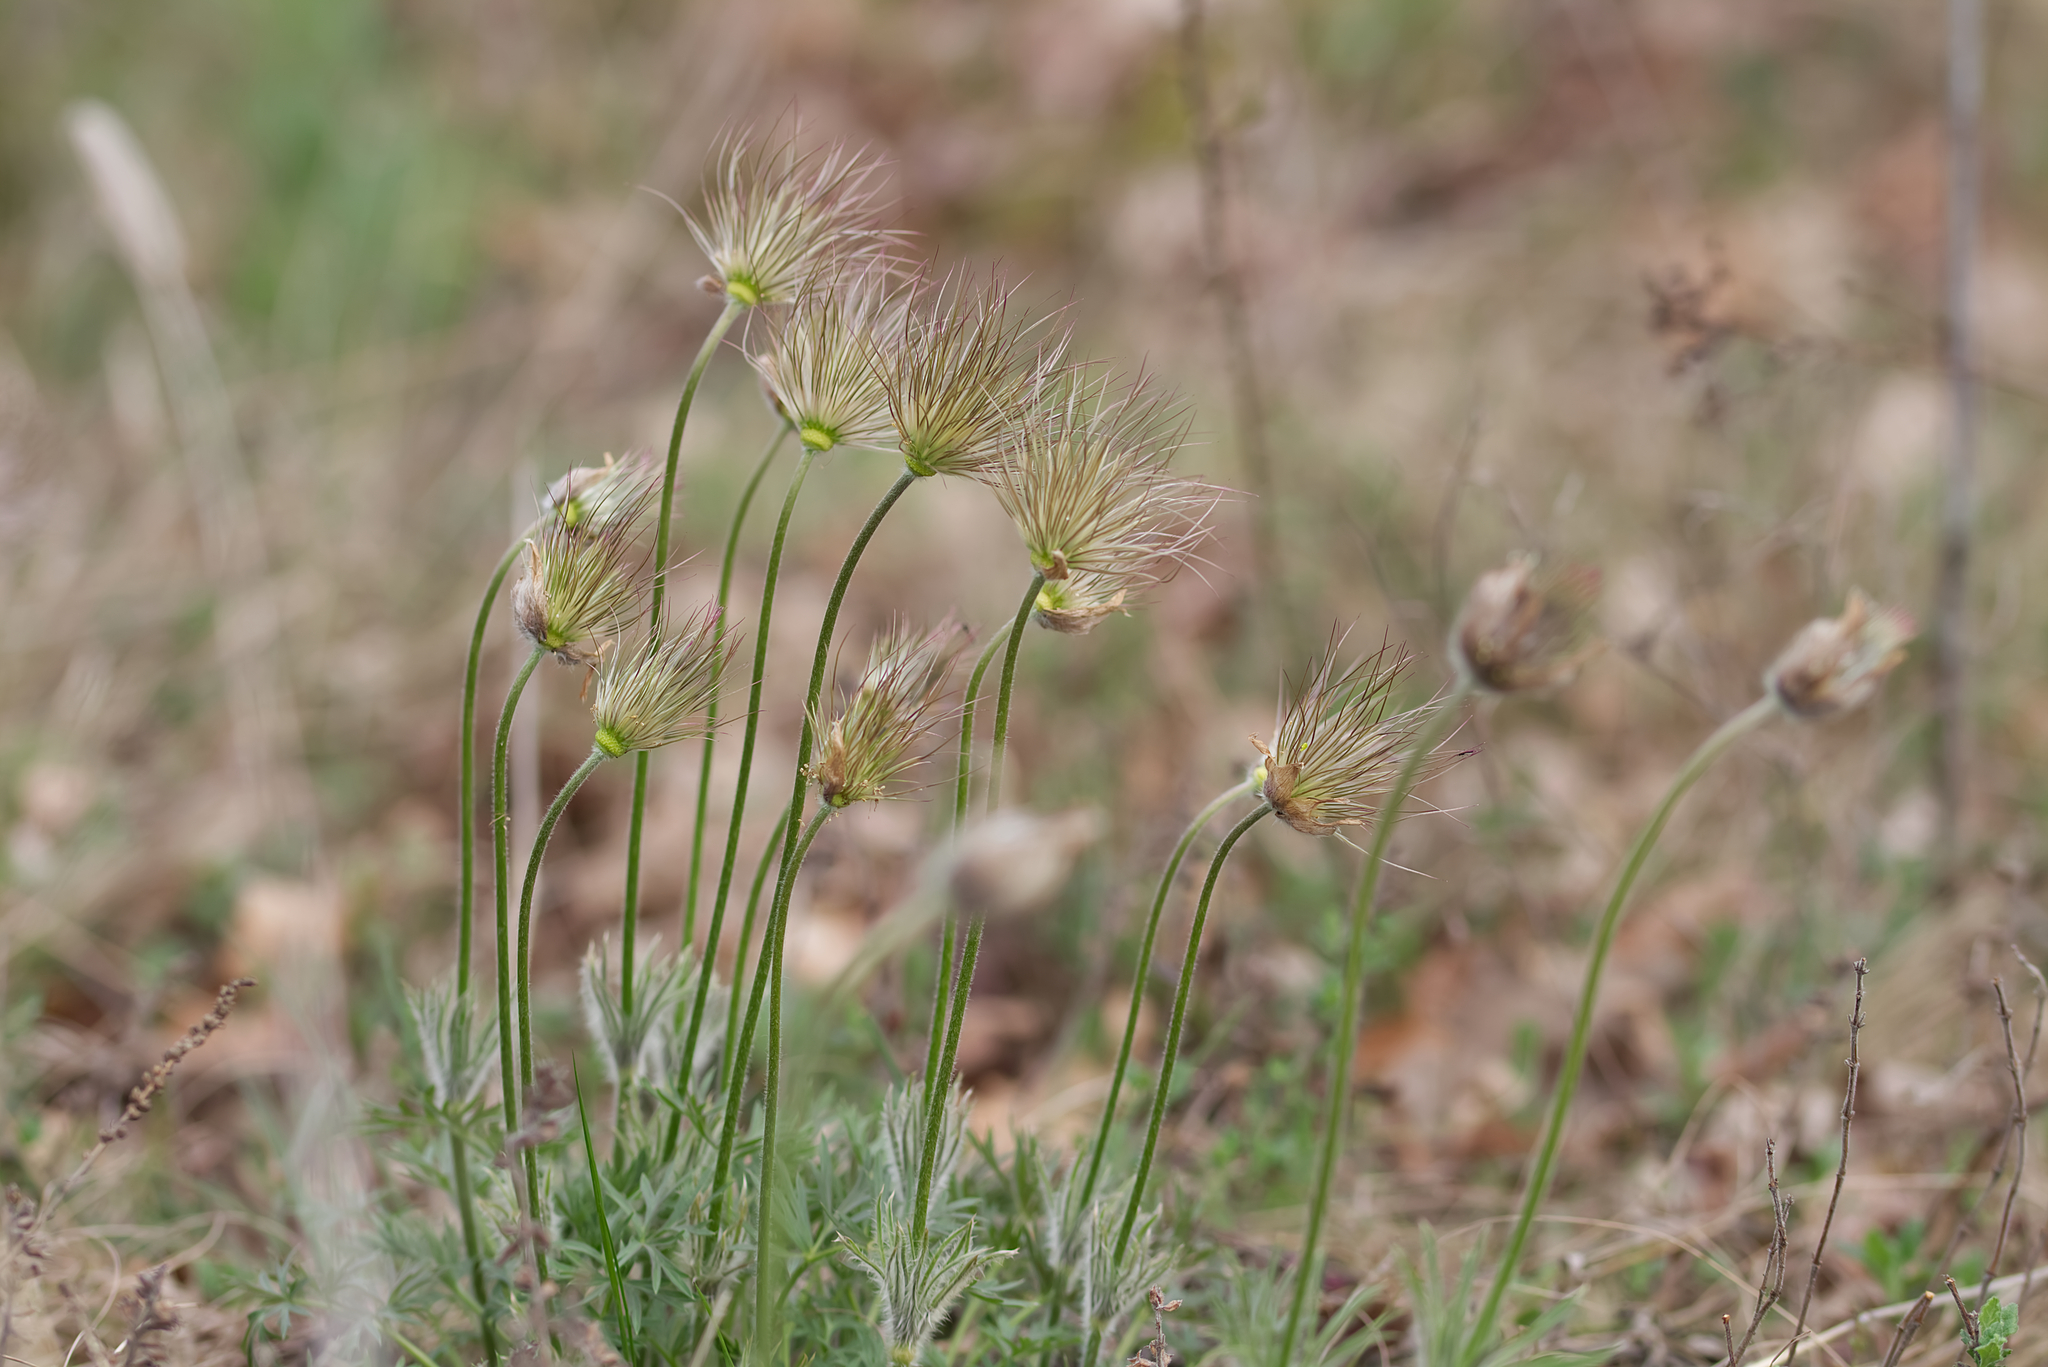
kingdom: Plantae
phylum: Tracheophyta
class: Magnoliopsida
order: Ranunculales
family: Ranunculaceae
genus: Pulsatilla
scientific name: Pulsatilla grandis
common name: Greater pasque flower
